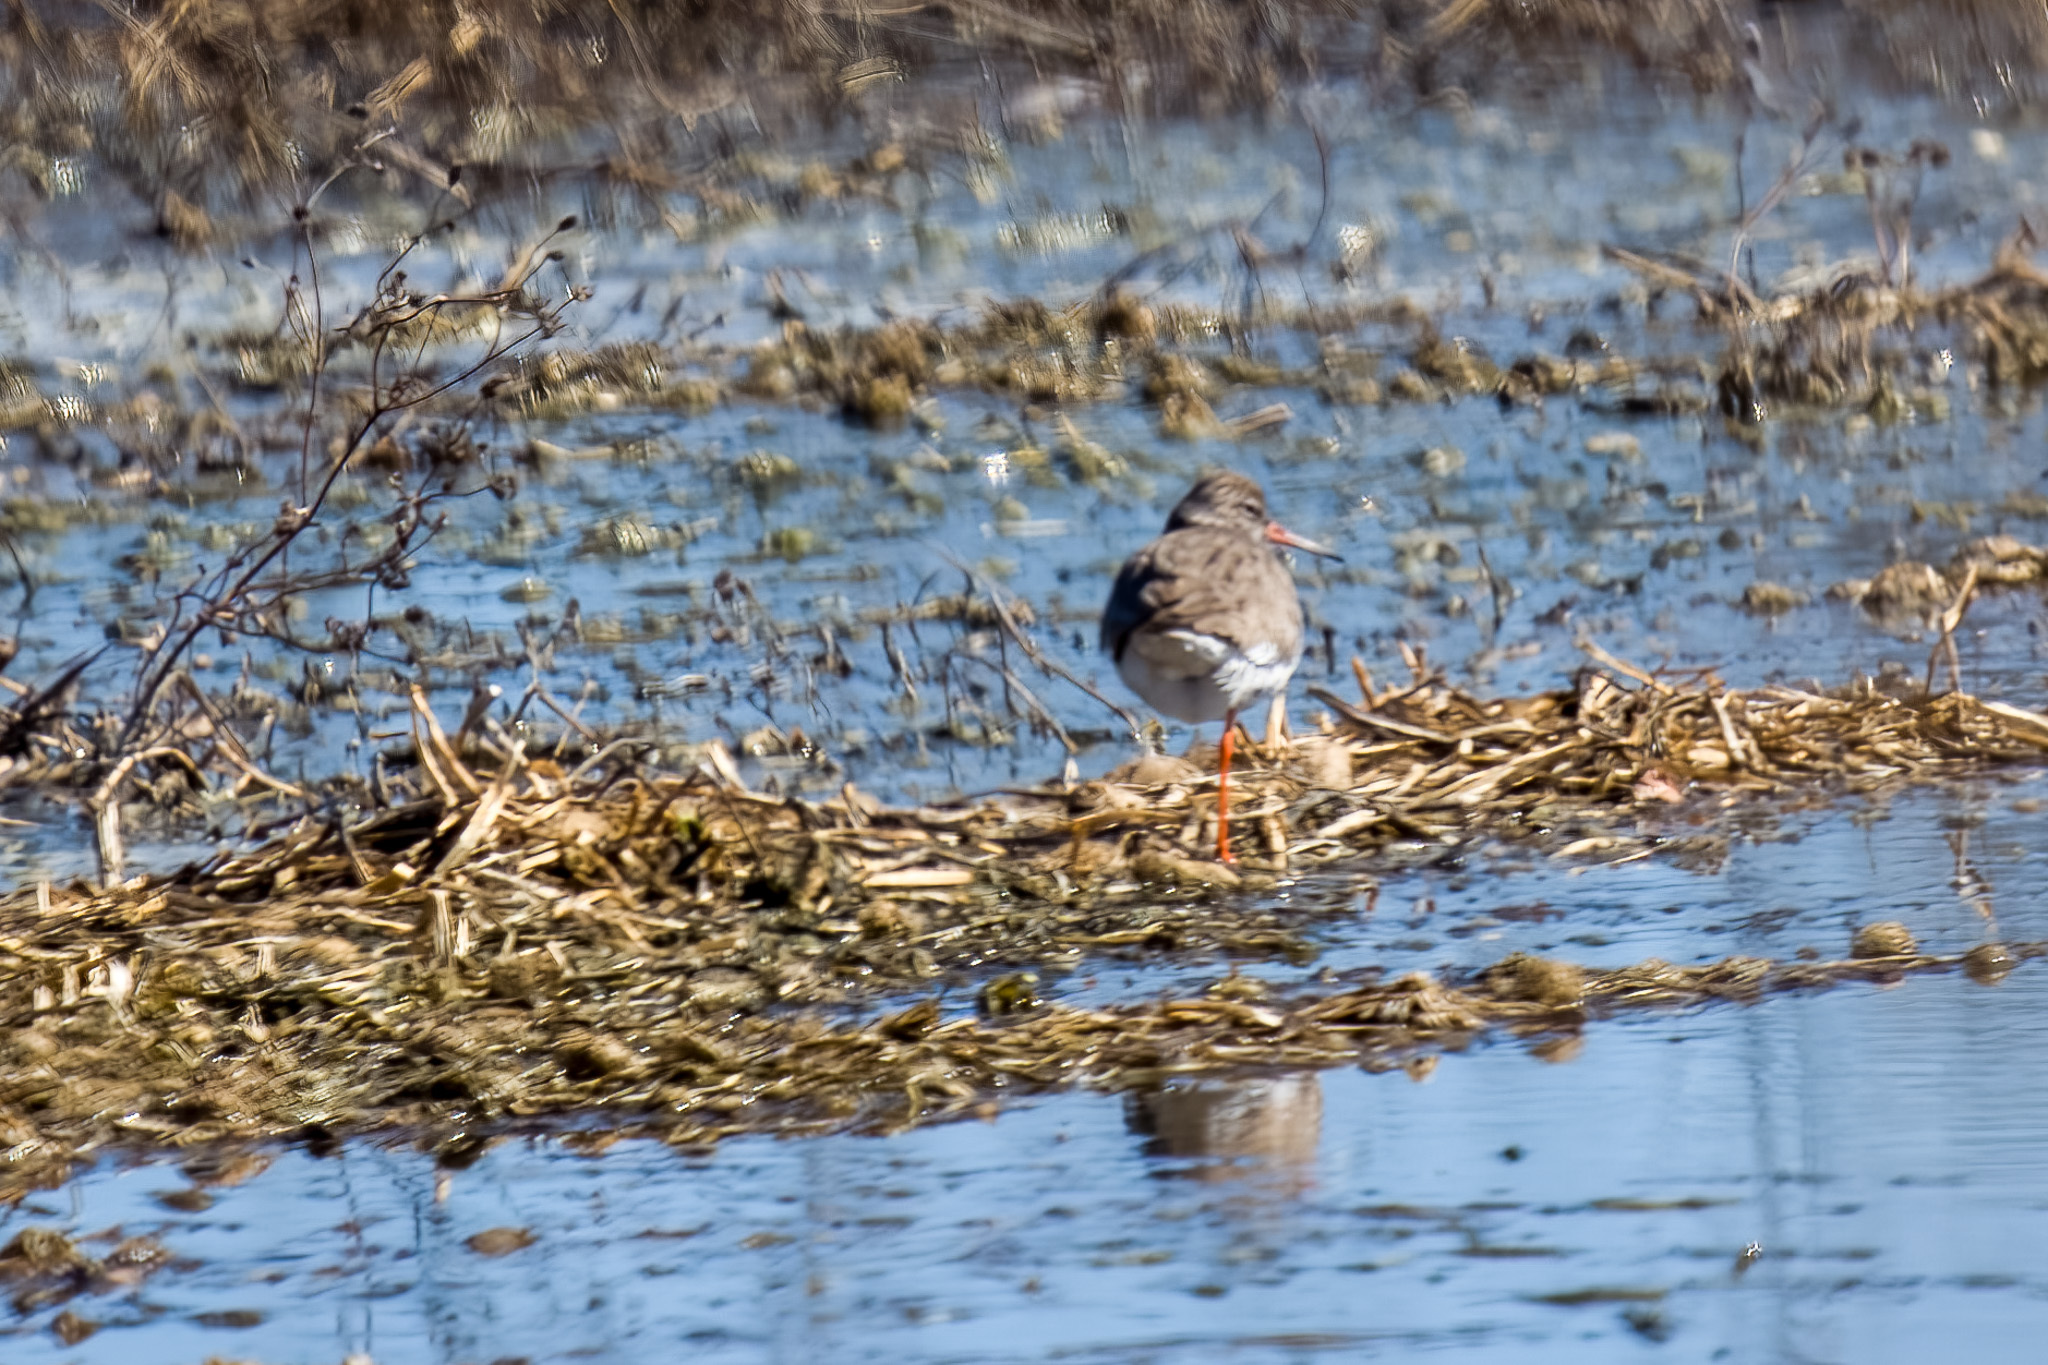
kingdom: Animalia
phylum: Chordata
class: Aves
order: Charadriiformes
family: Scolopacidae
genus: Tringa
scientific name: Tringa totanus
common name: Common redshank
